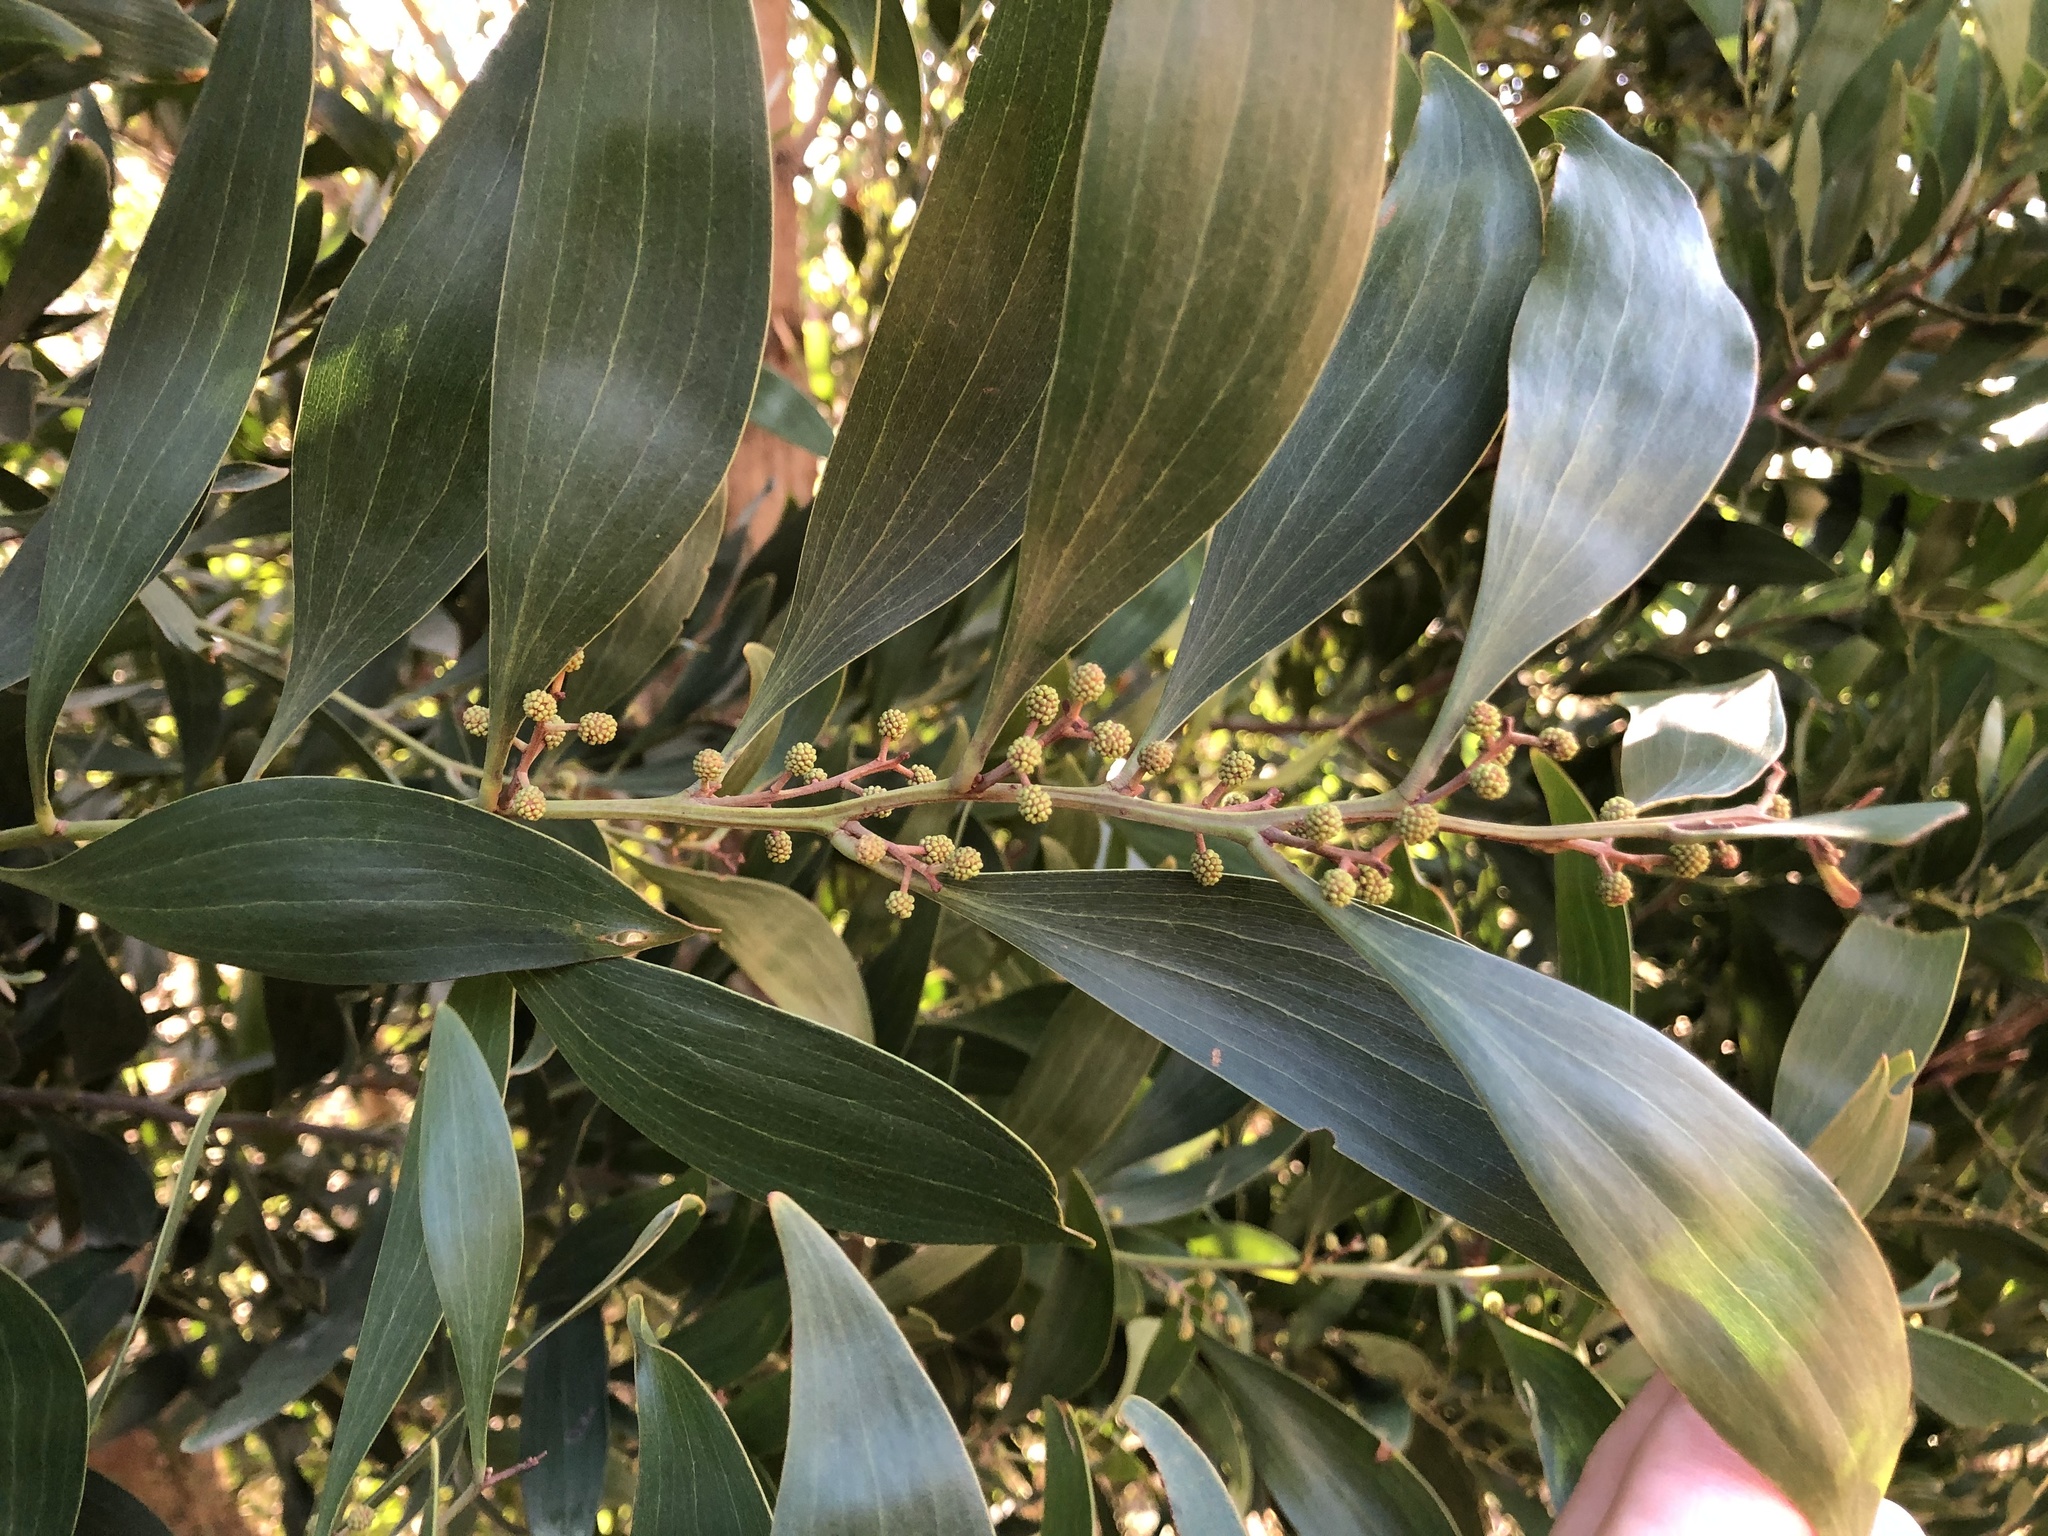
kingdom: Plantae
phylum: Tracheophyta
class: Magnoliopsida
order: Fabales
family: Fabaceae
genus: Acacia
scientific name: Acacia melanoxylon
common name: Blackwood
